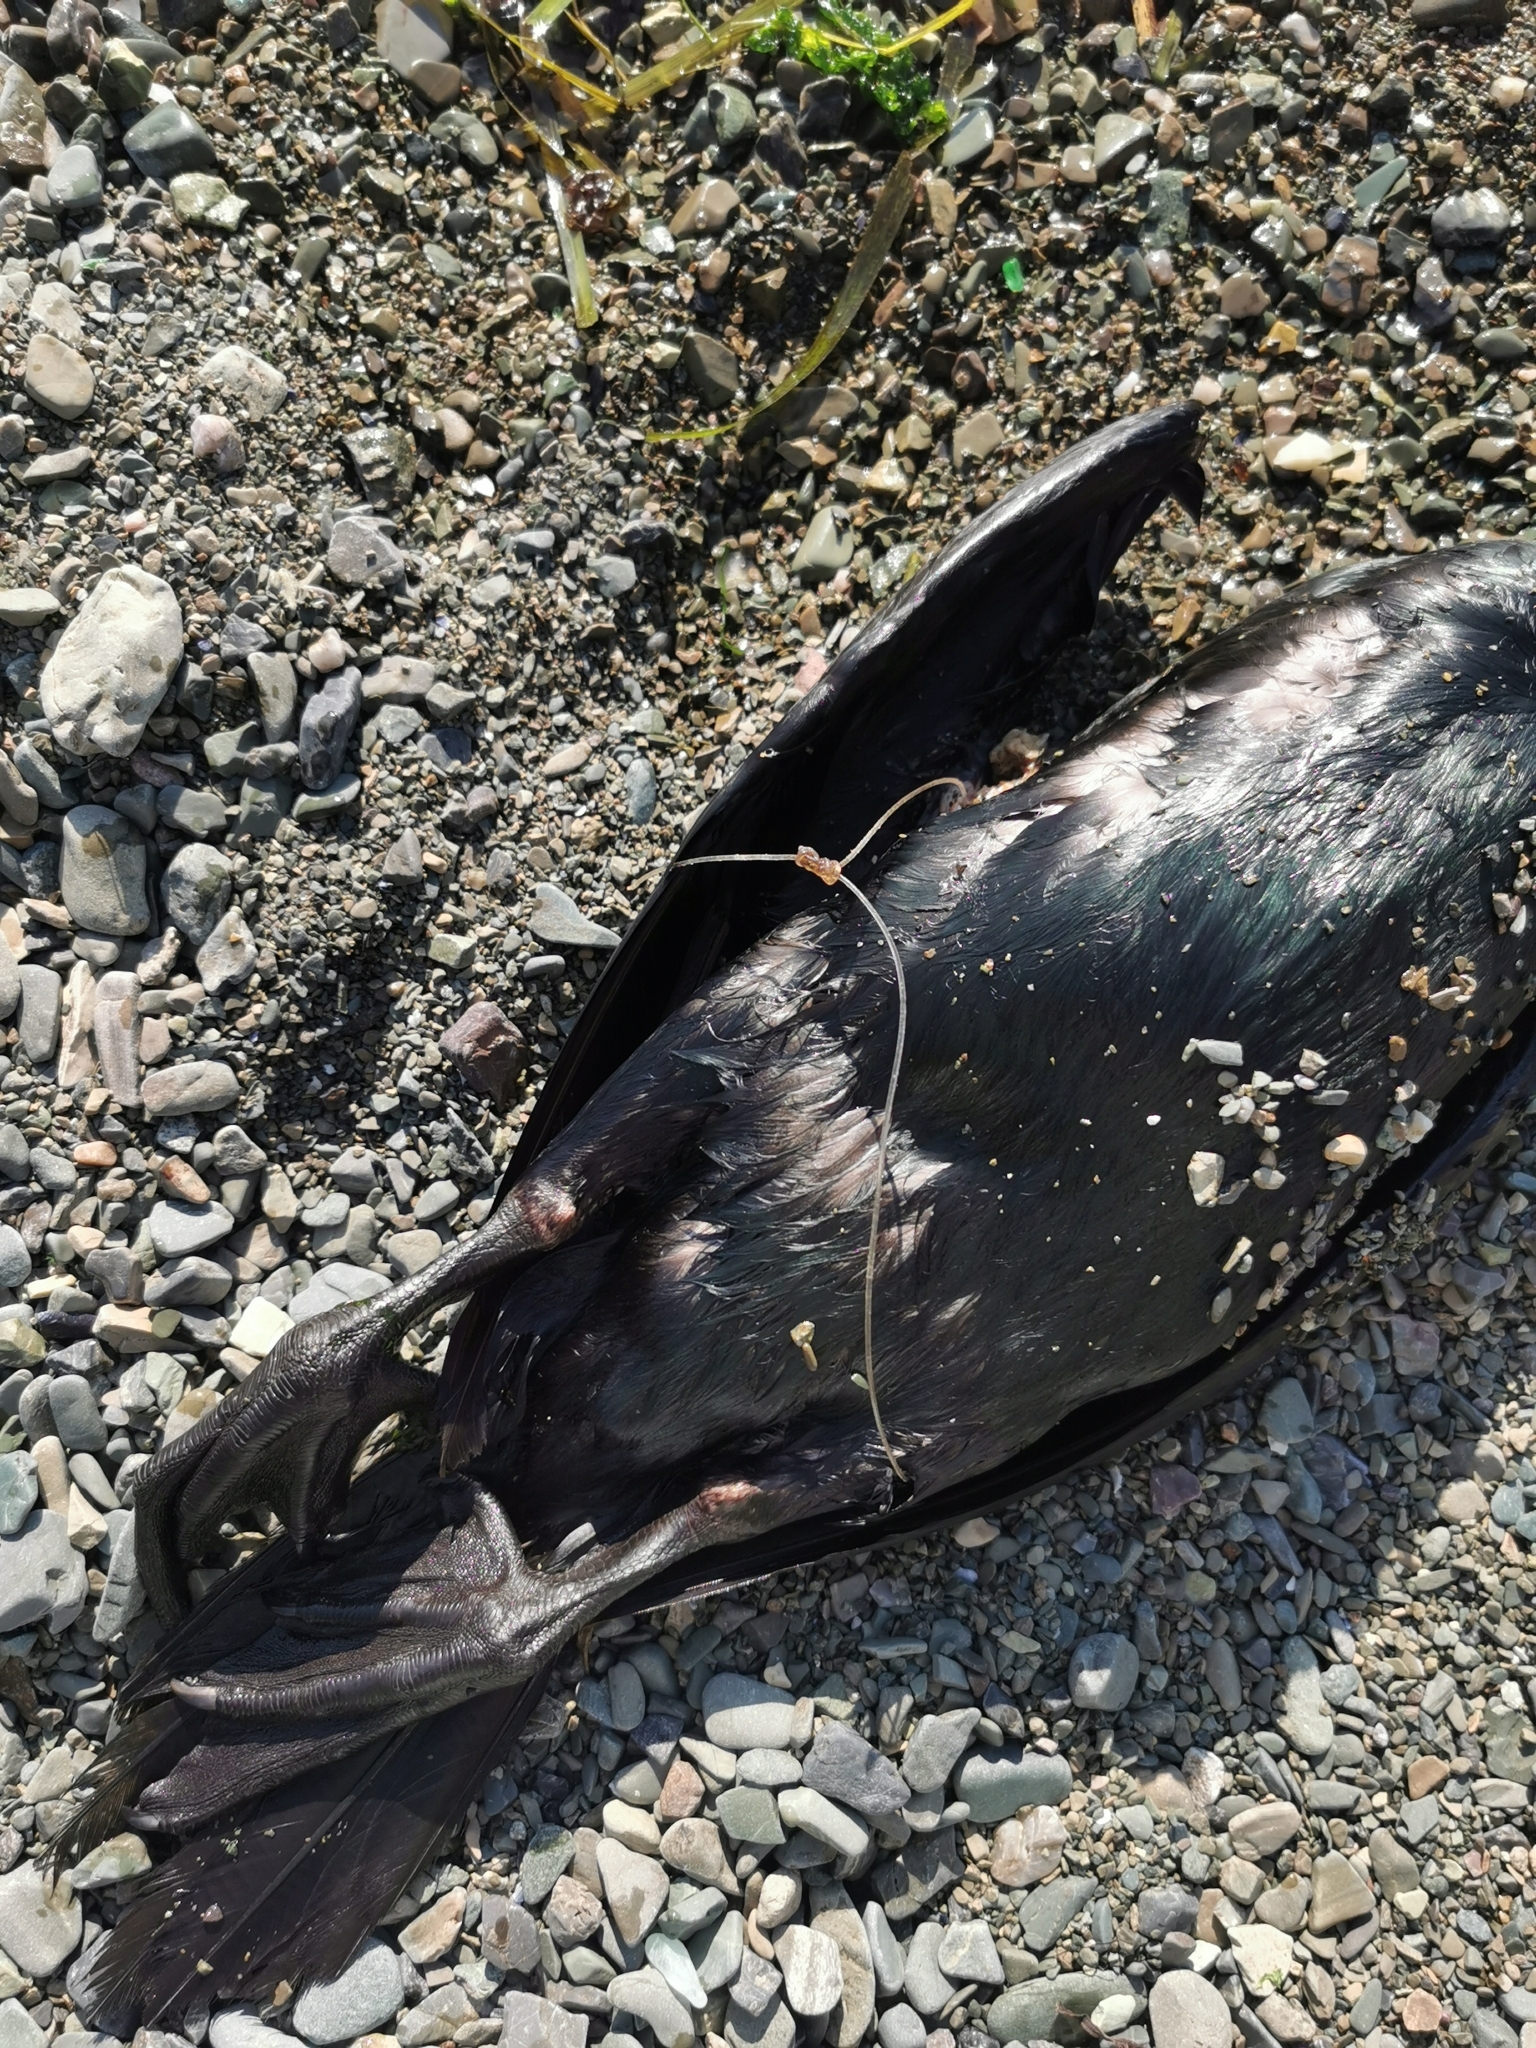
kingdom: Animalia
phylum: Chordata
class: Aves
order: Suliformes
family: Phalacrocoracidae
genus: Phalacrocorax
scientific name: Phalacrocorax pelagicus
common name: Pelagic cormorant
